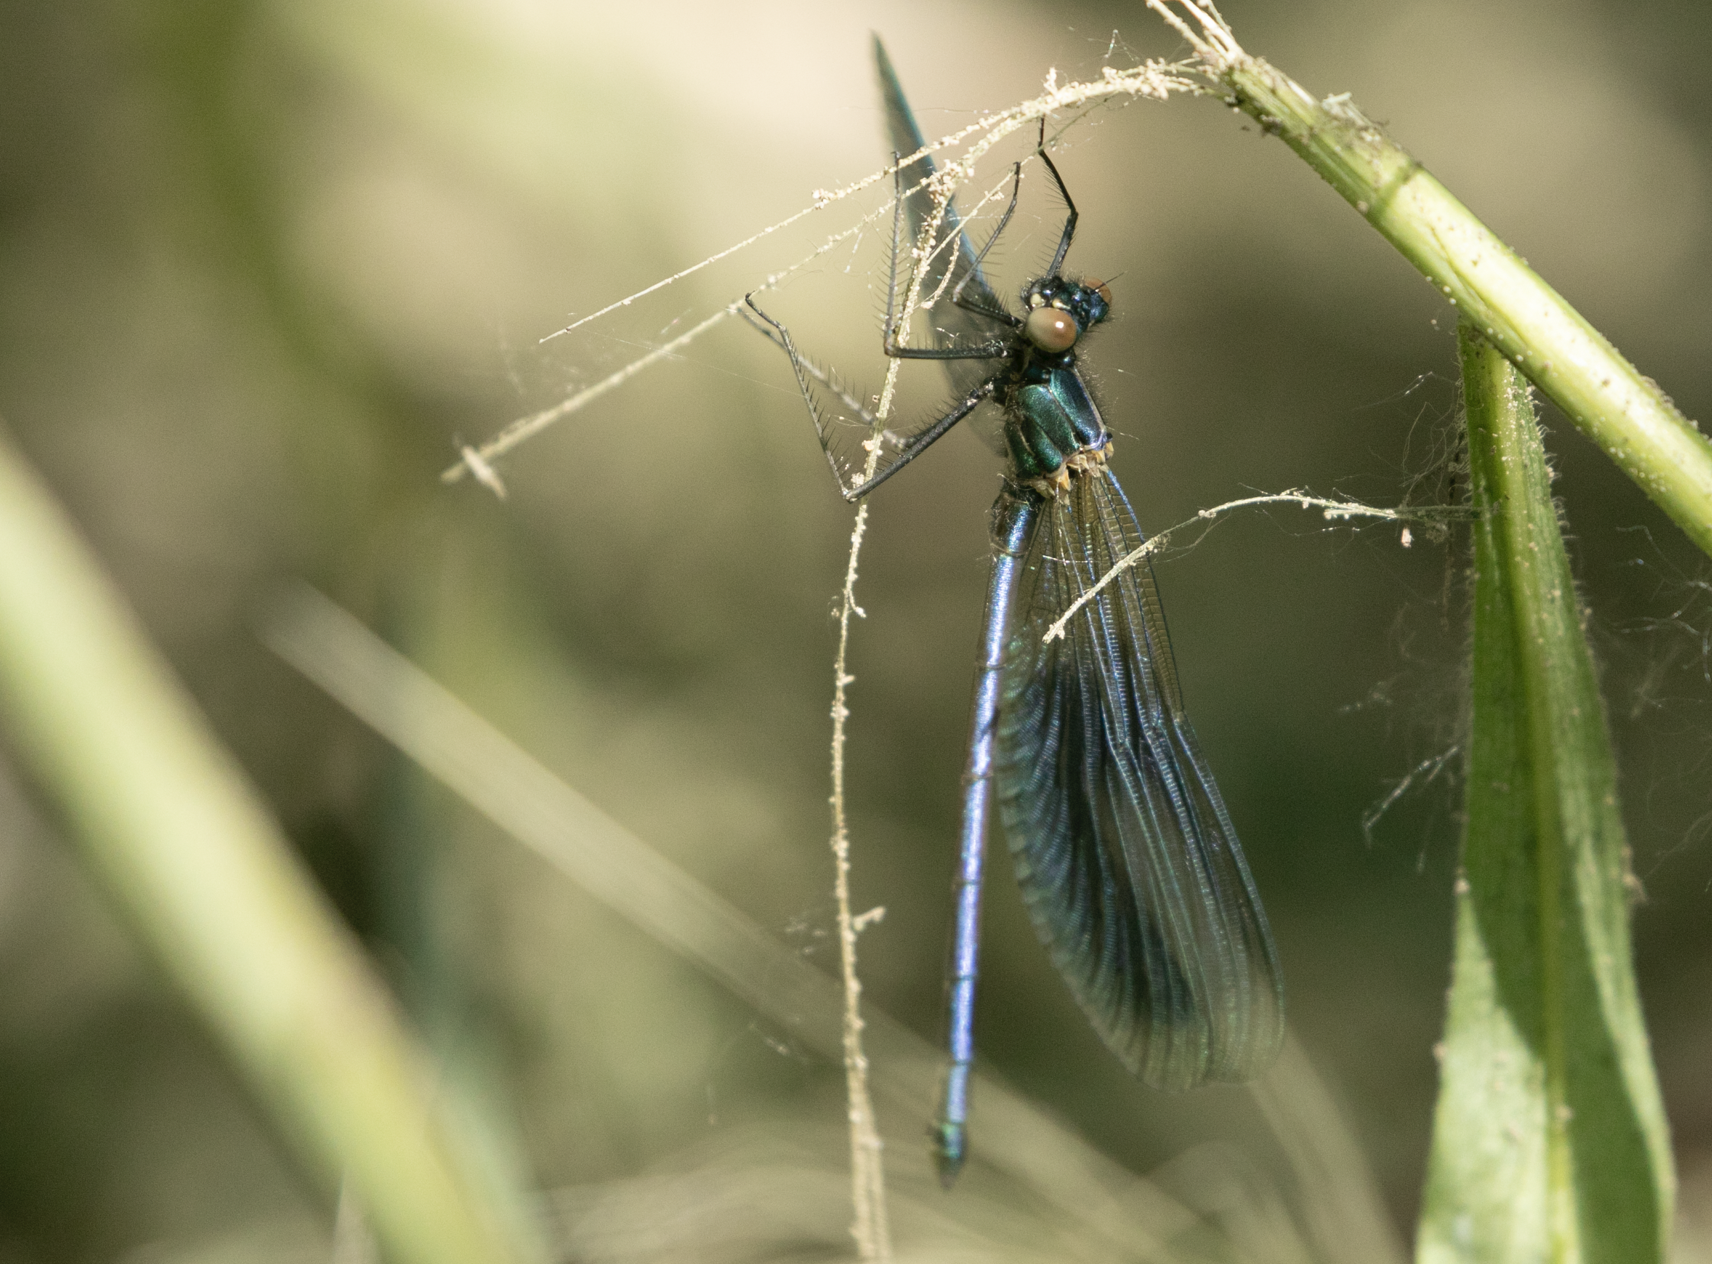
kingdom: Animalia
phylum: Arthropoda
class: Insecta
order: Odonata
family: Calopterygidae
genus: Calopteryx
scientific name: Calopteryx splendens
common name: Banded demoiselle
